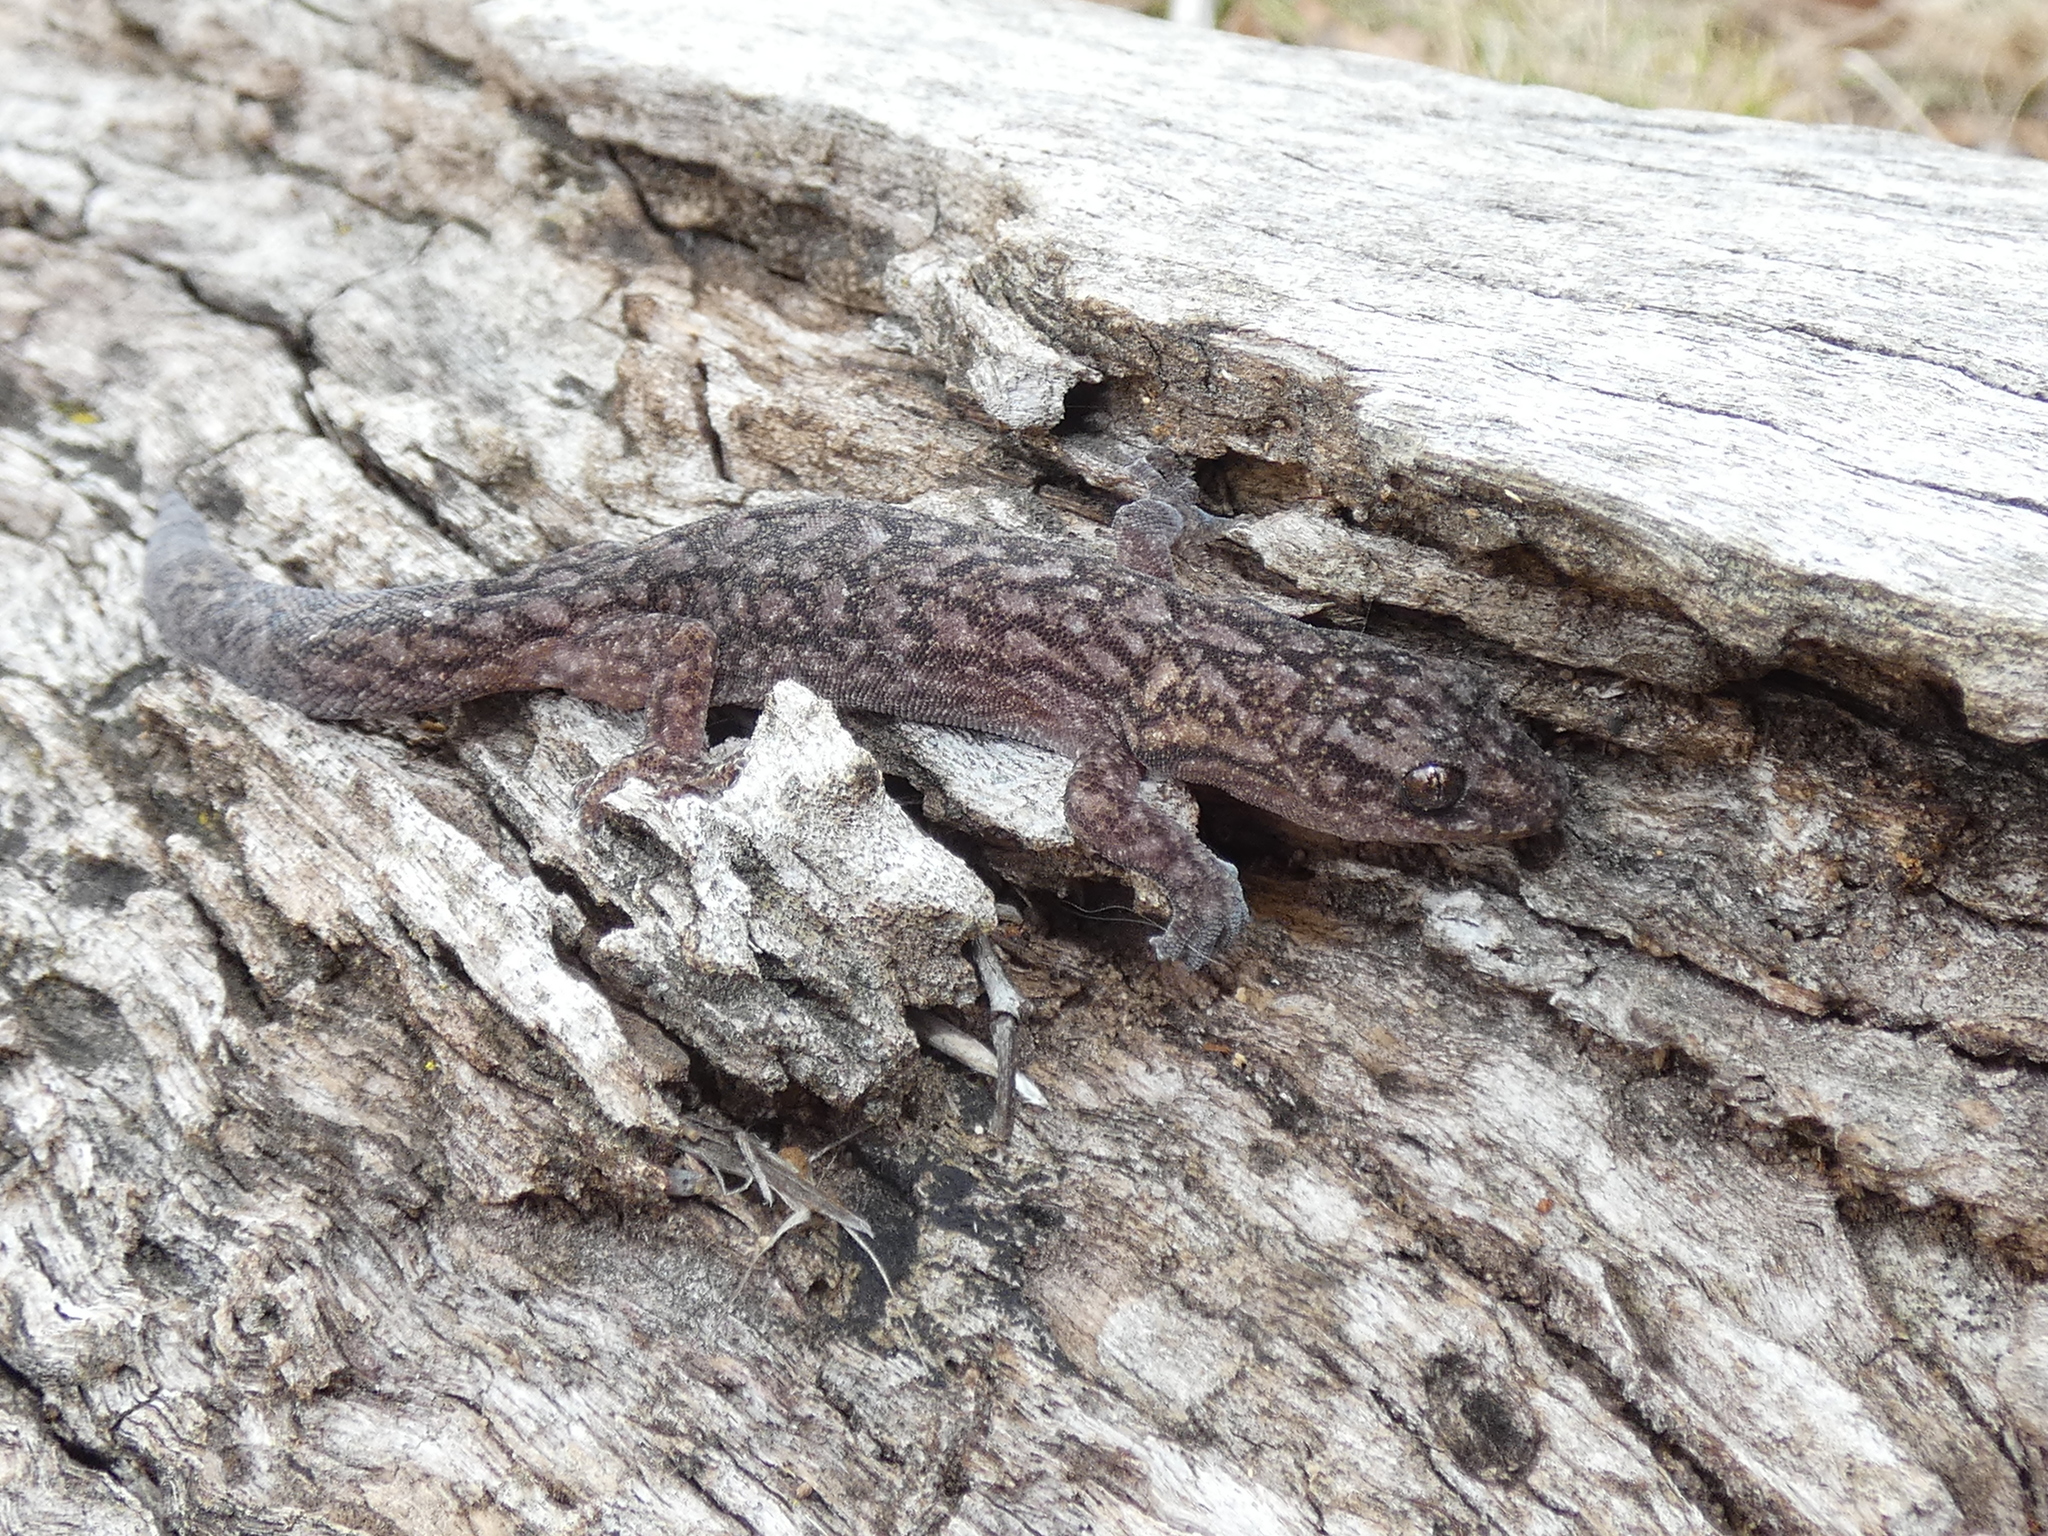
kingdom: Animalia
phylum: Chordata
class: Squamata
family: Gekkonidae
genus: Christinus
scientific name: Christinus marmoratus
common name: Marbled gecko
